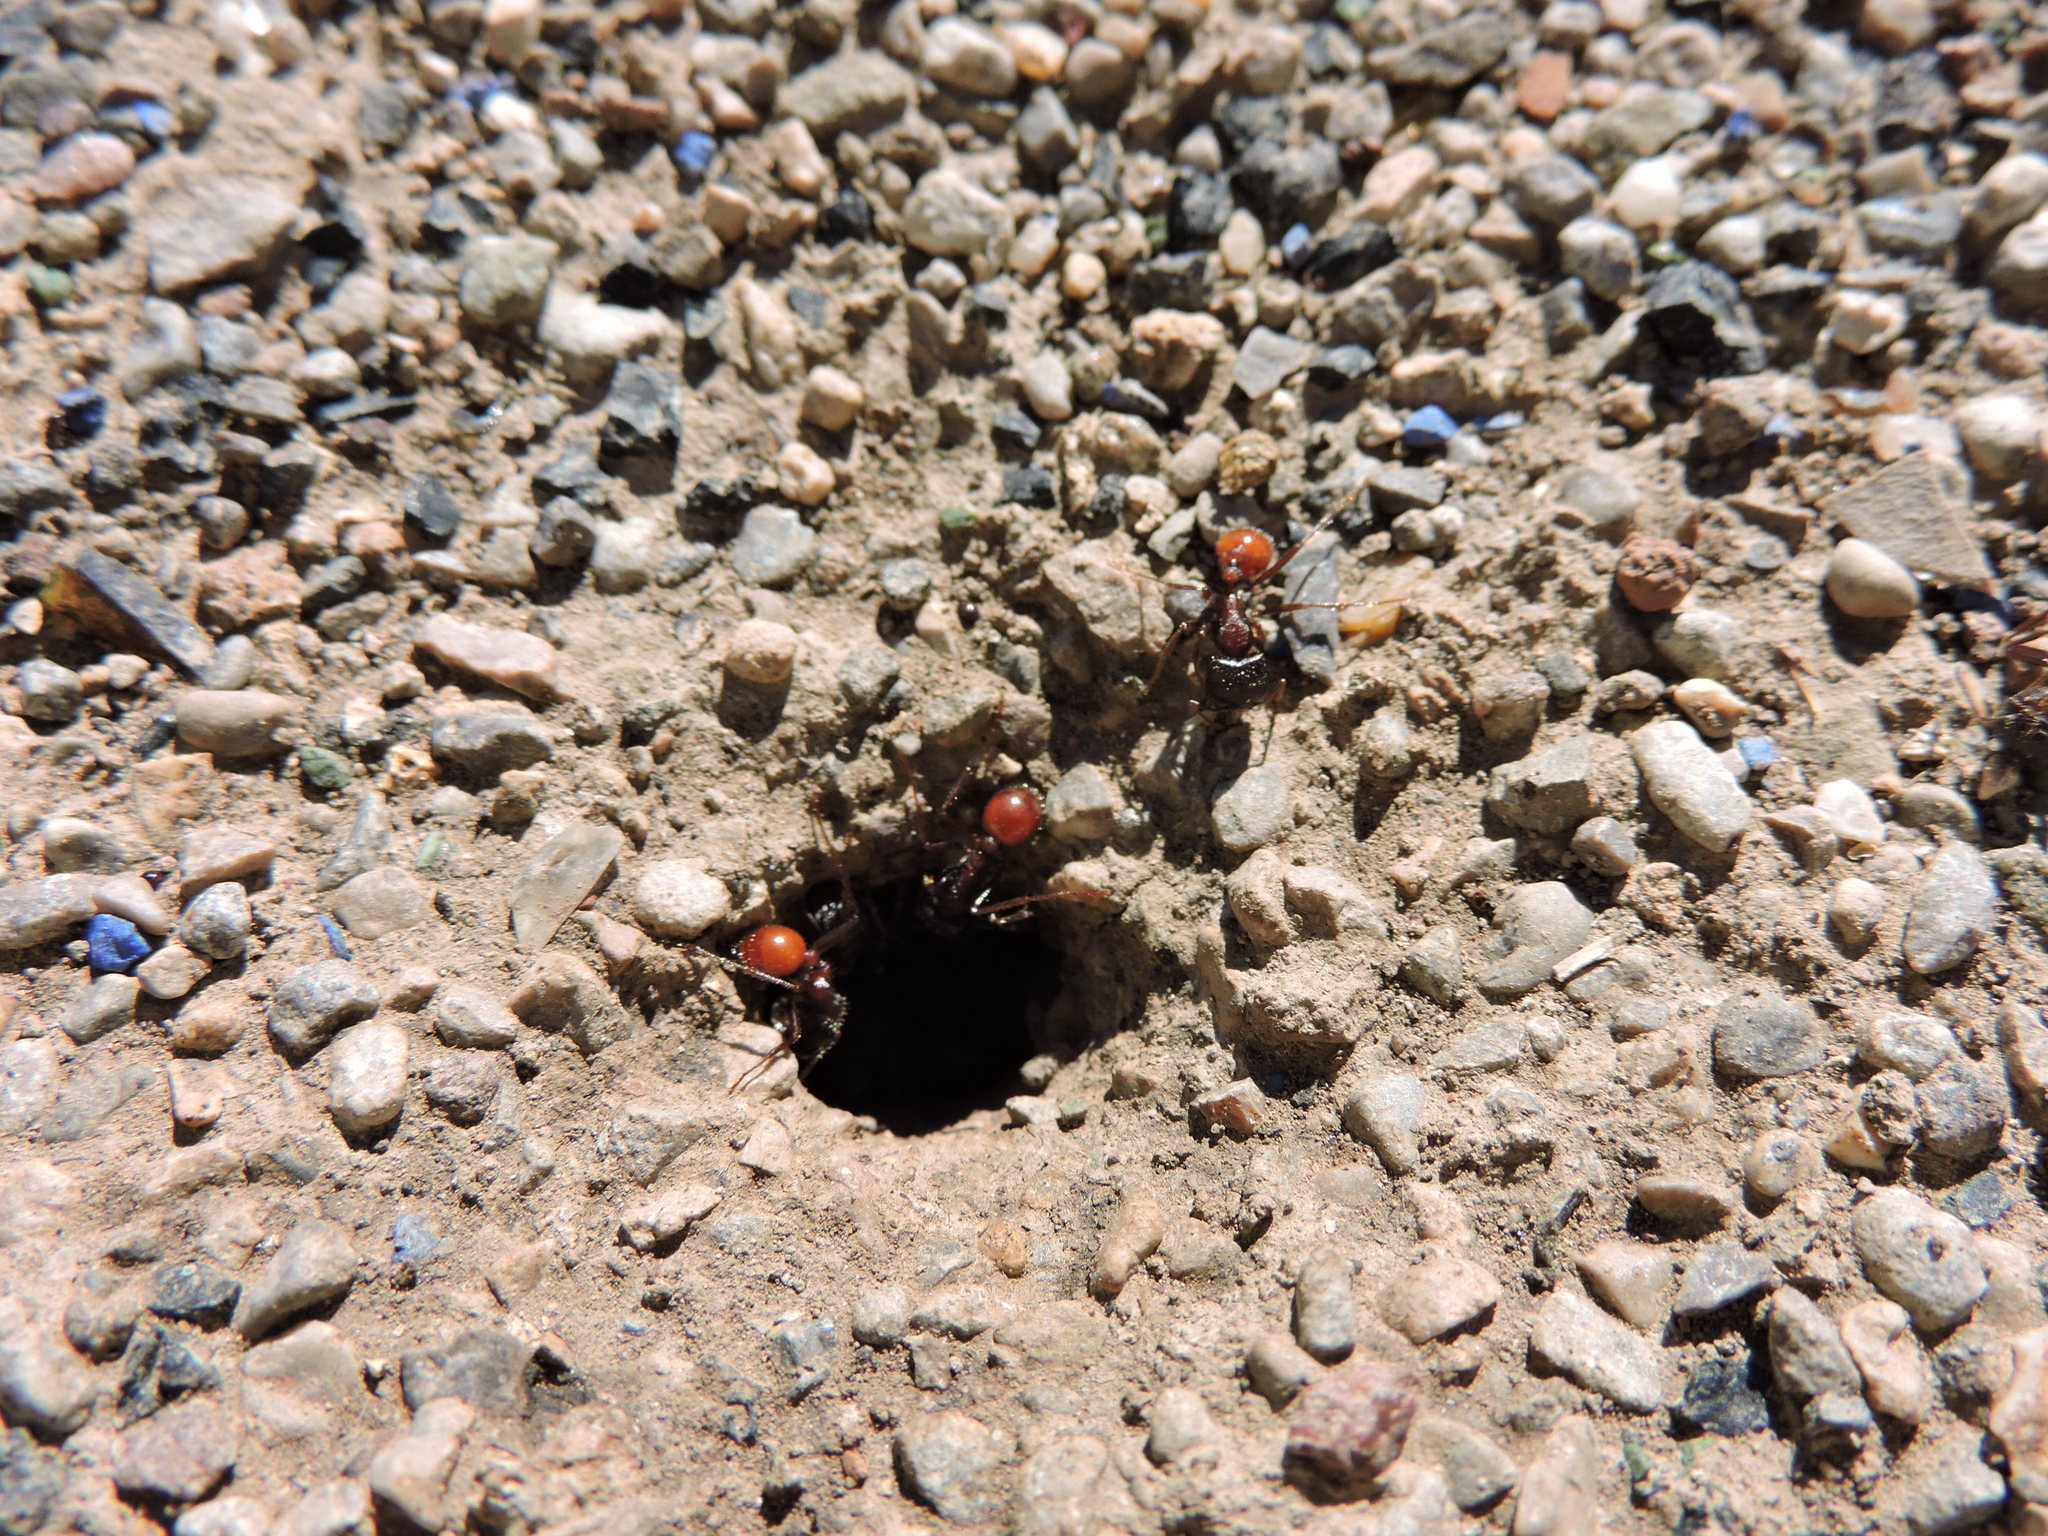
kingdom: Animalia
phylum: Arthropoda
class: Insecta
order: Hymenoptera
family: Formicidae
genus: Pogonomyrmex
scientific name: Pogonomyrmex rugosus
